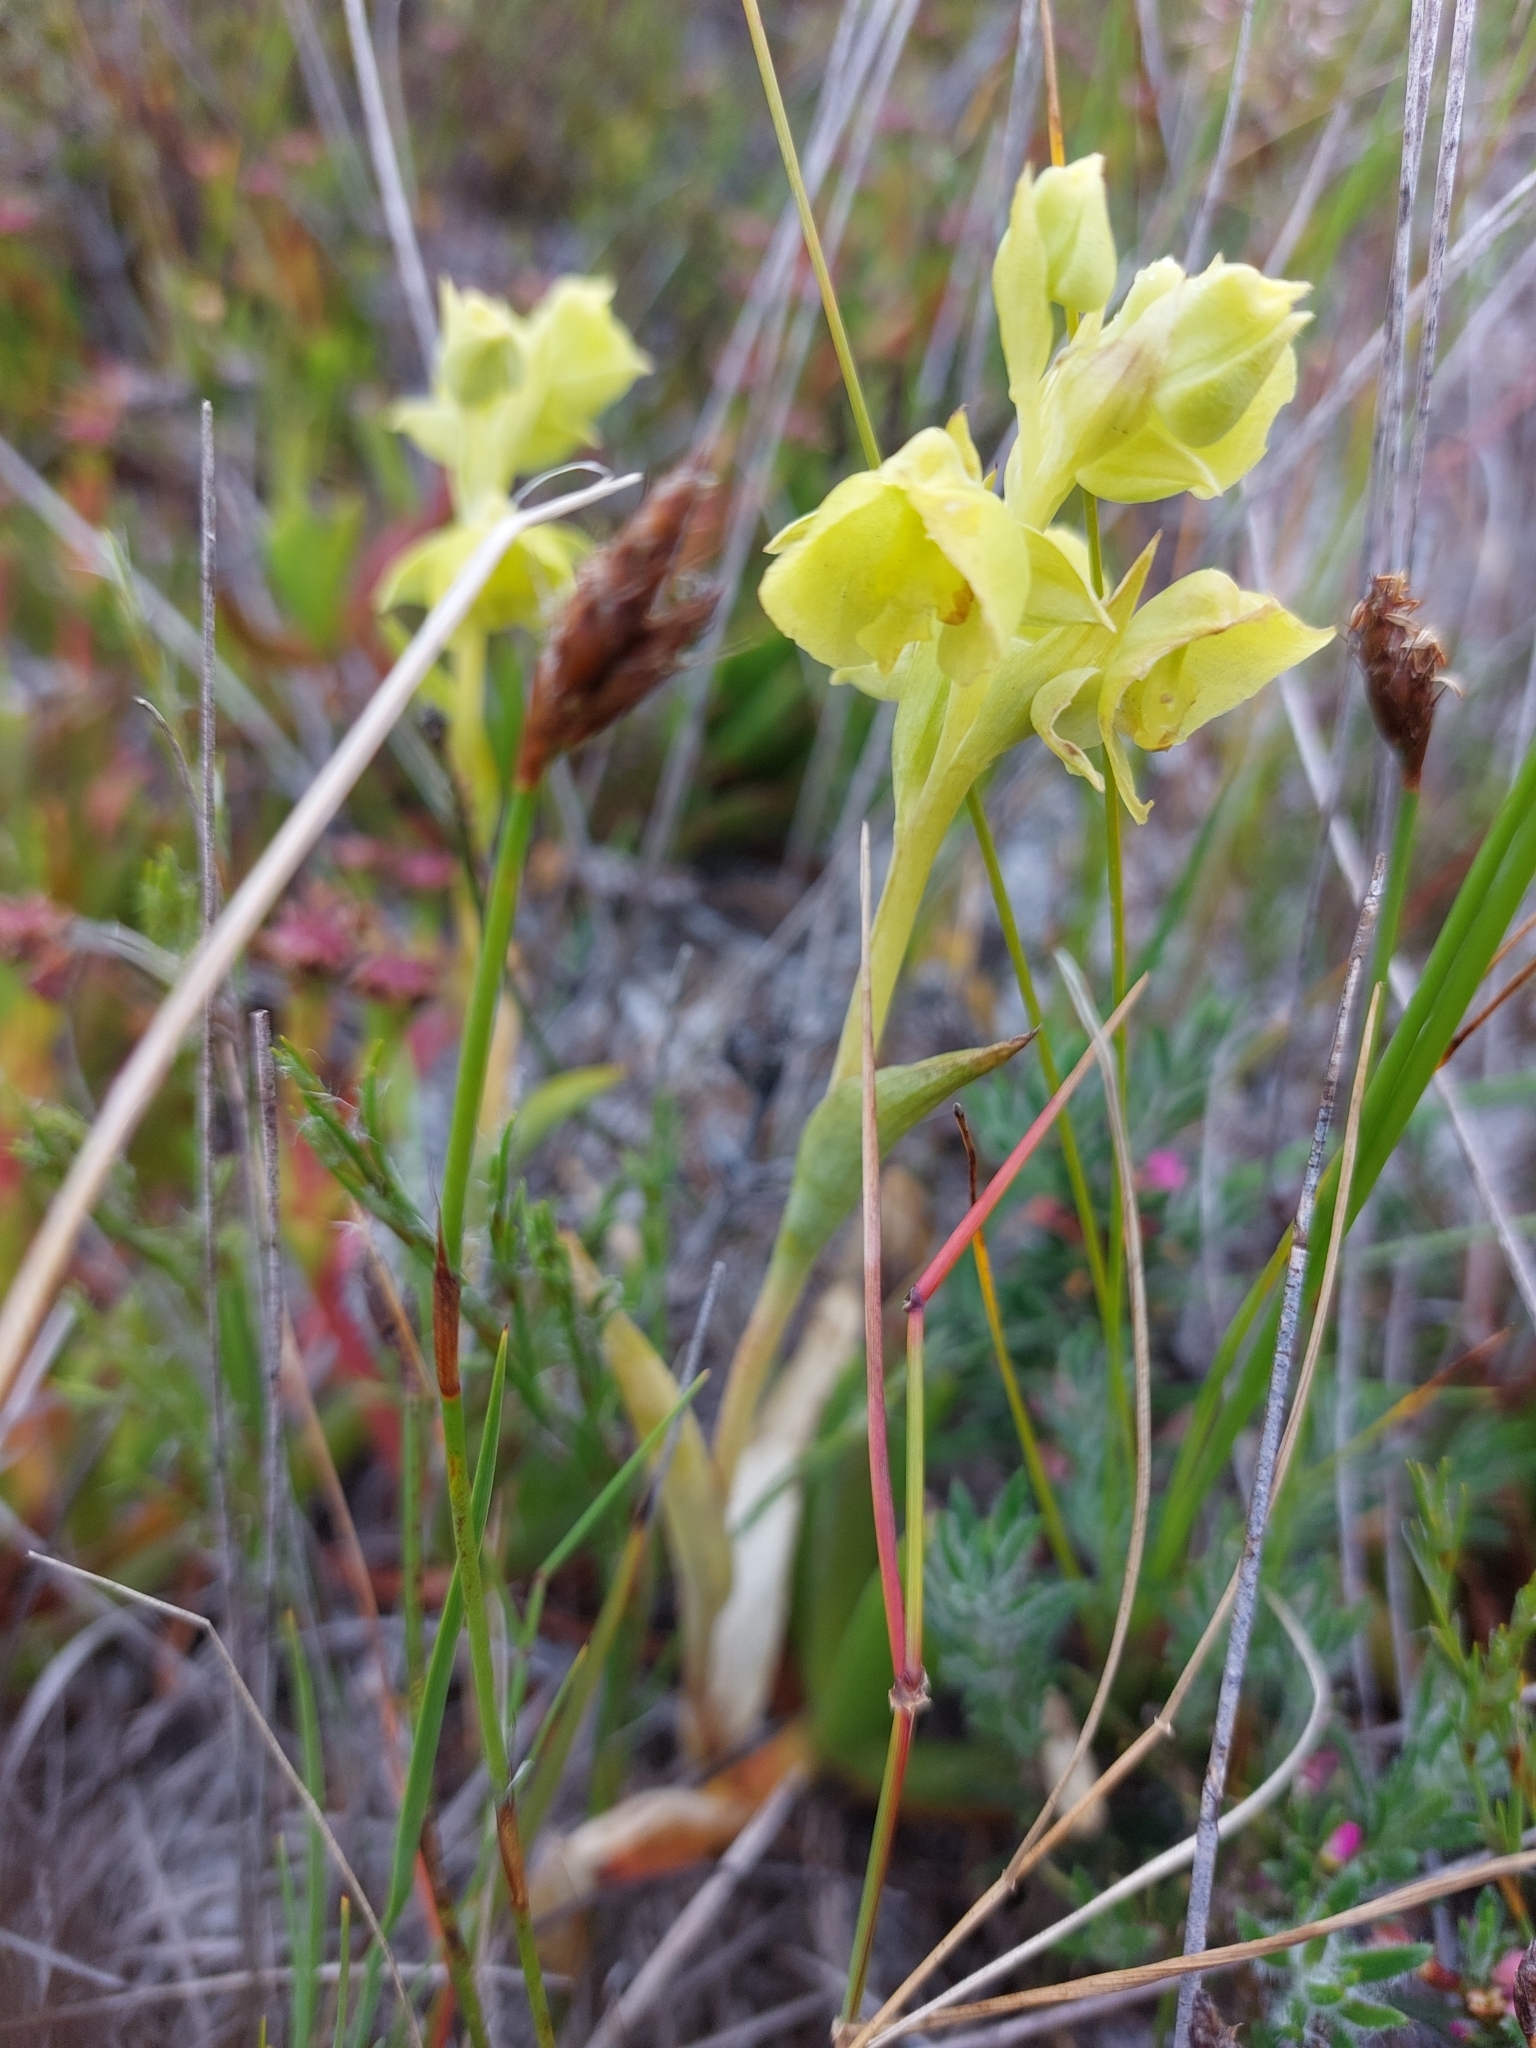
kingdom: Plantae
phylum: Tracheophyta
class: Liliopsida
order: Asparagales
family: Orchidaceae
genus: Pterygodium
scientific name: Pterygodium catholicum
